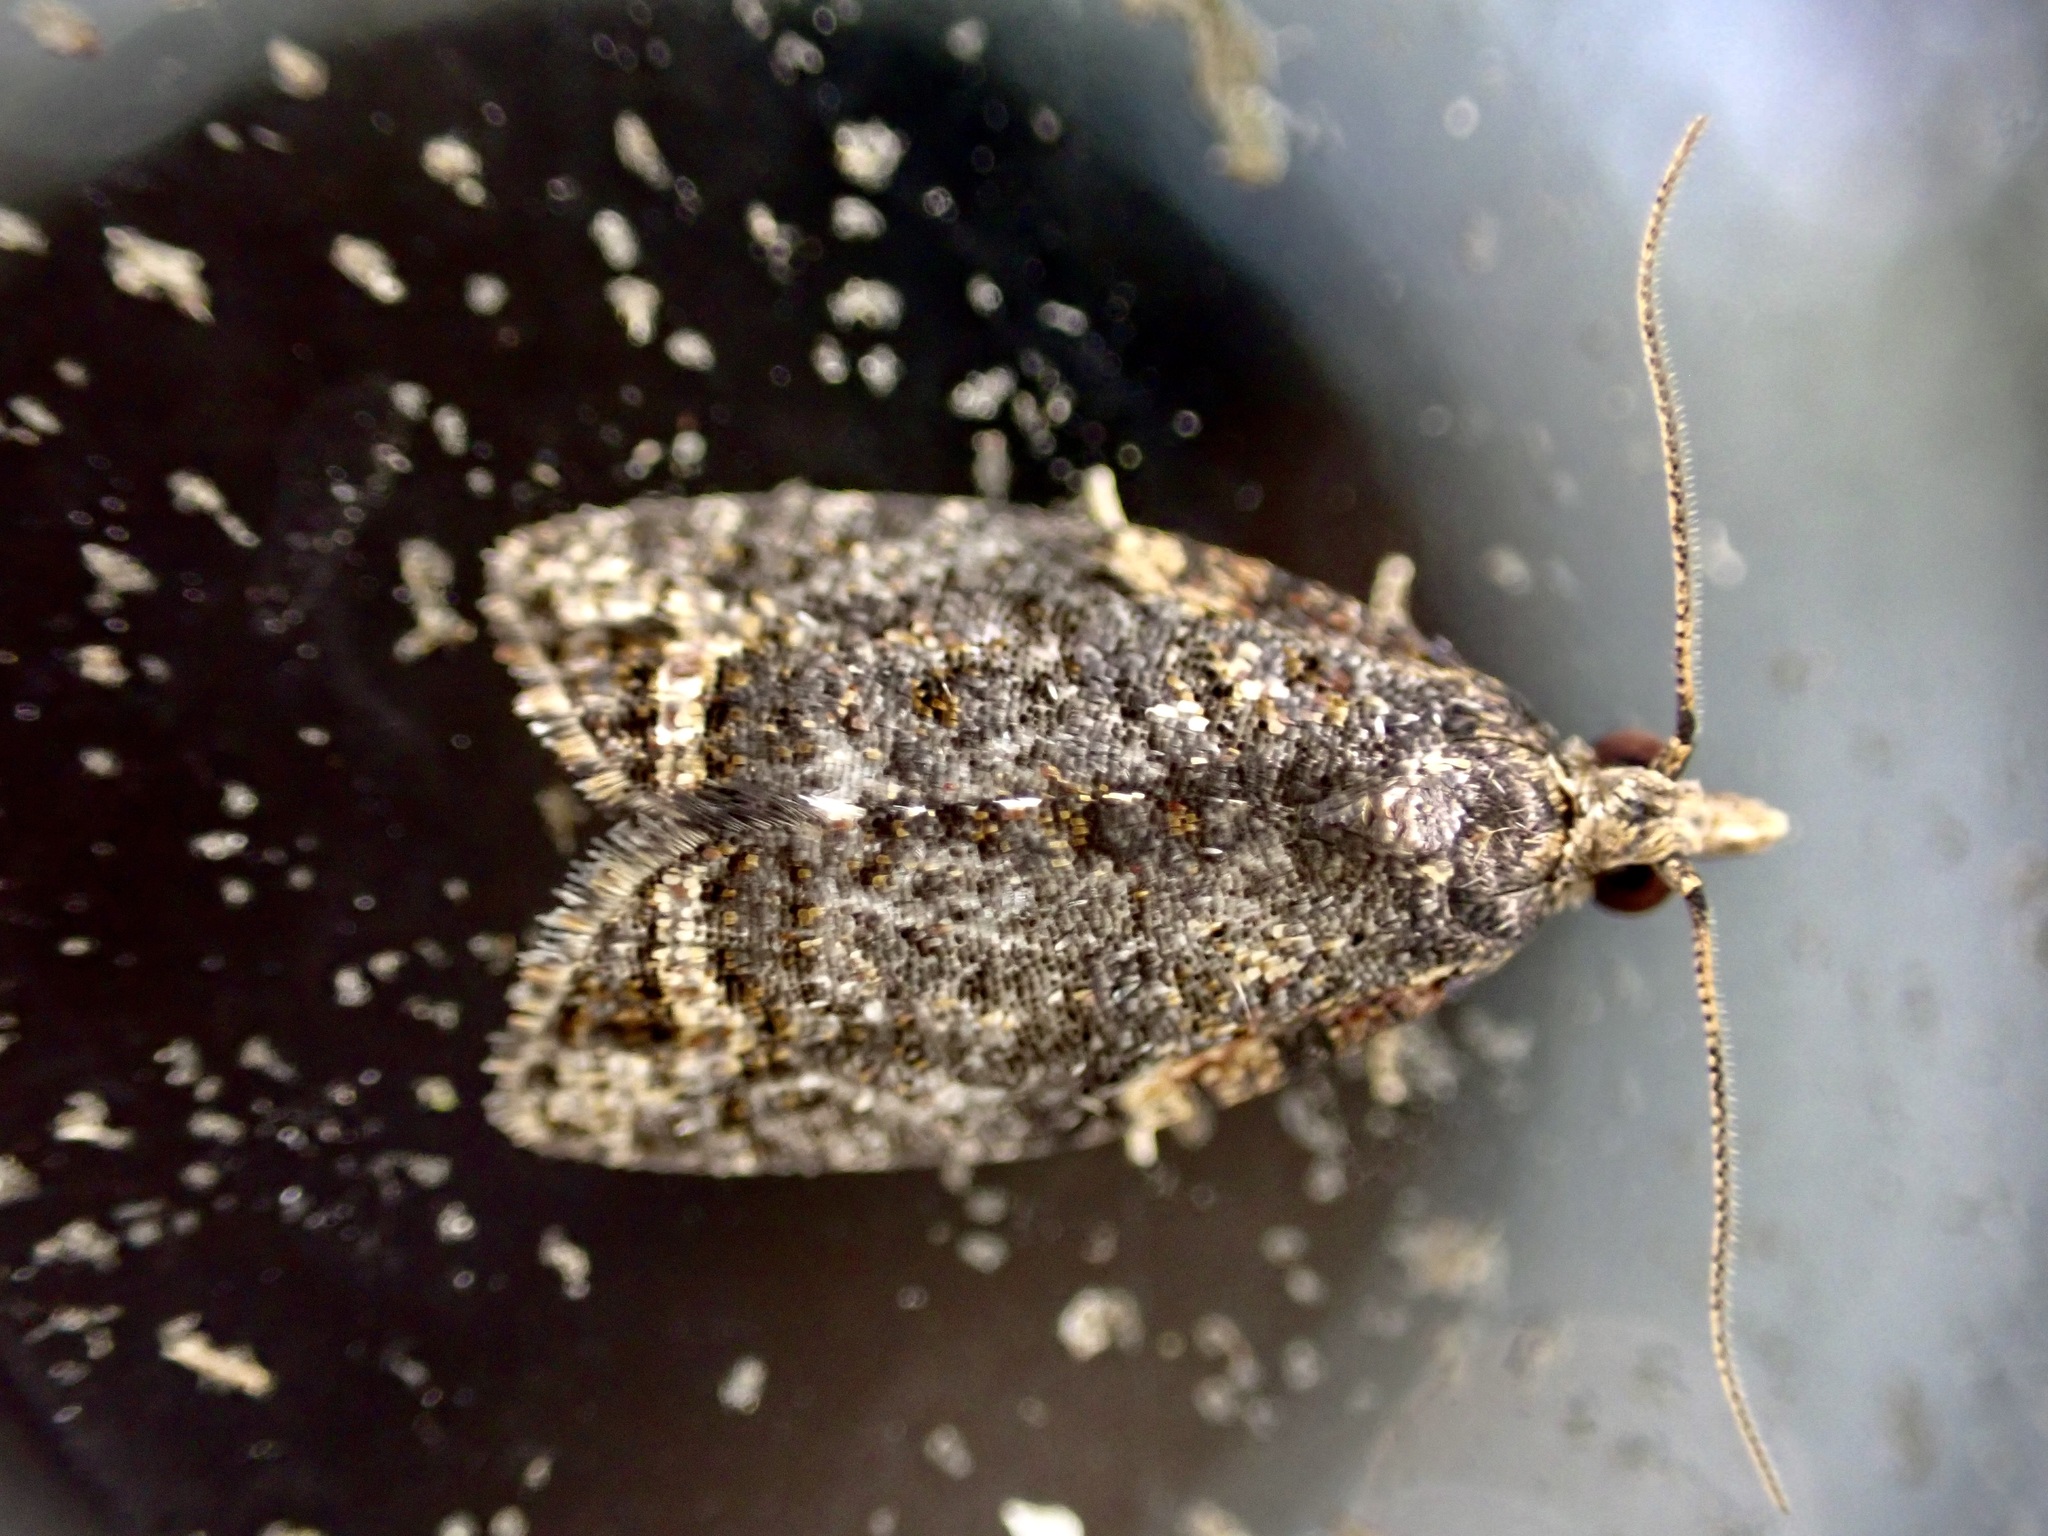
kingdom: Animalia
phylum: Arthropoda
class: Insecta
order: Lepidoptera
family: Tortricidae
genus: Capua
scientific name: Capua intractana
